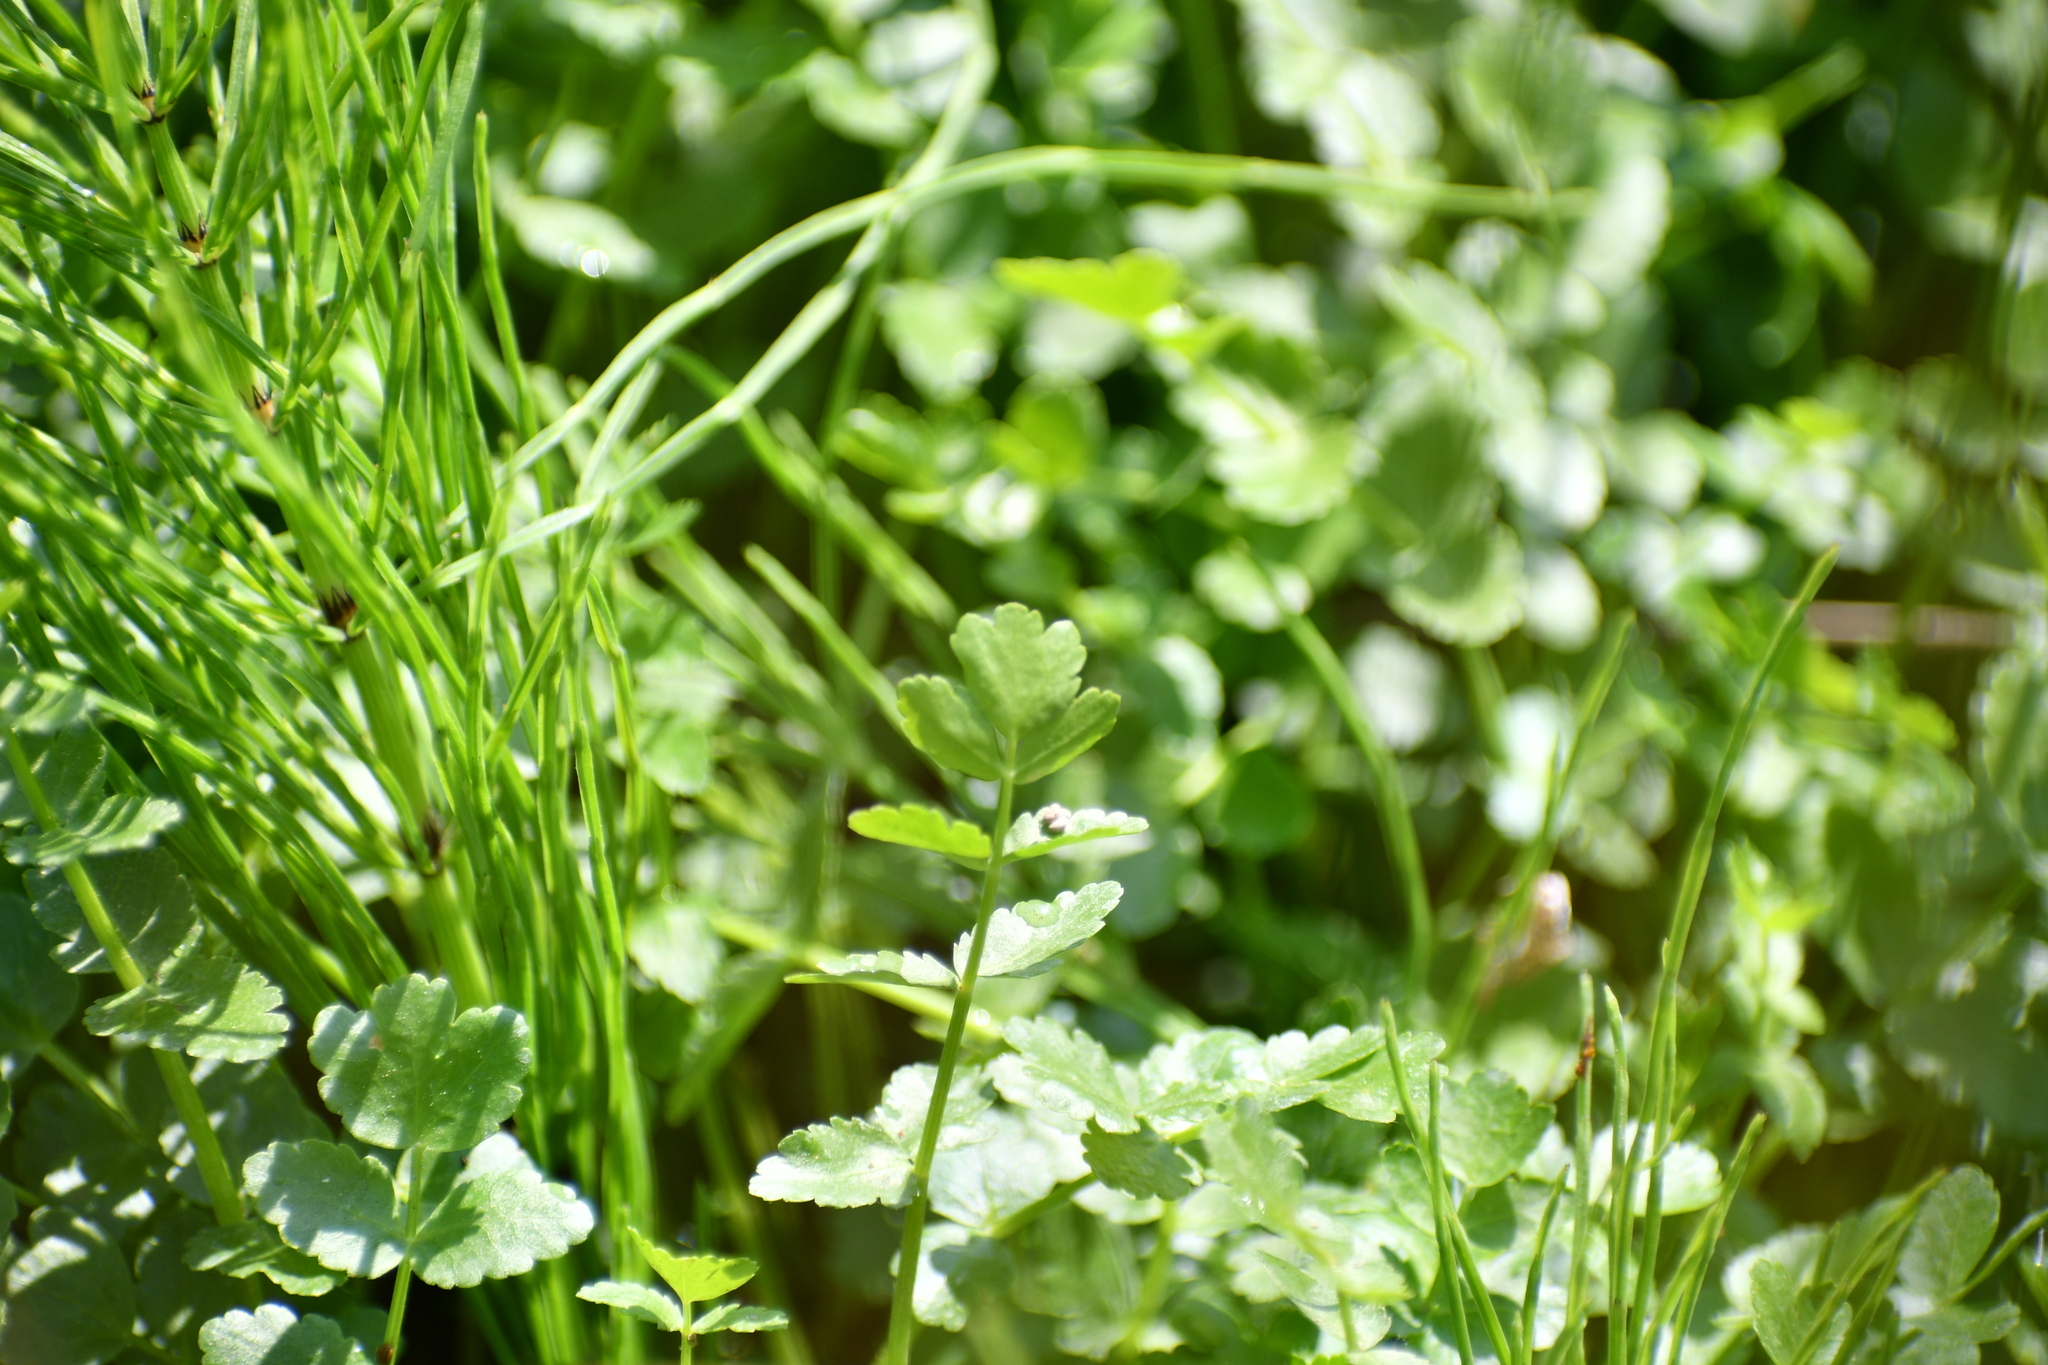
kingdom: Plantae
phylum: Tracheophyta
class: Magnoliopsida
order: Apiales
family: Apiaceae
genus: Berula
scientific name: Berula erecta
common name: Lesser water-parsnip
